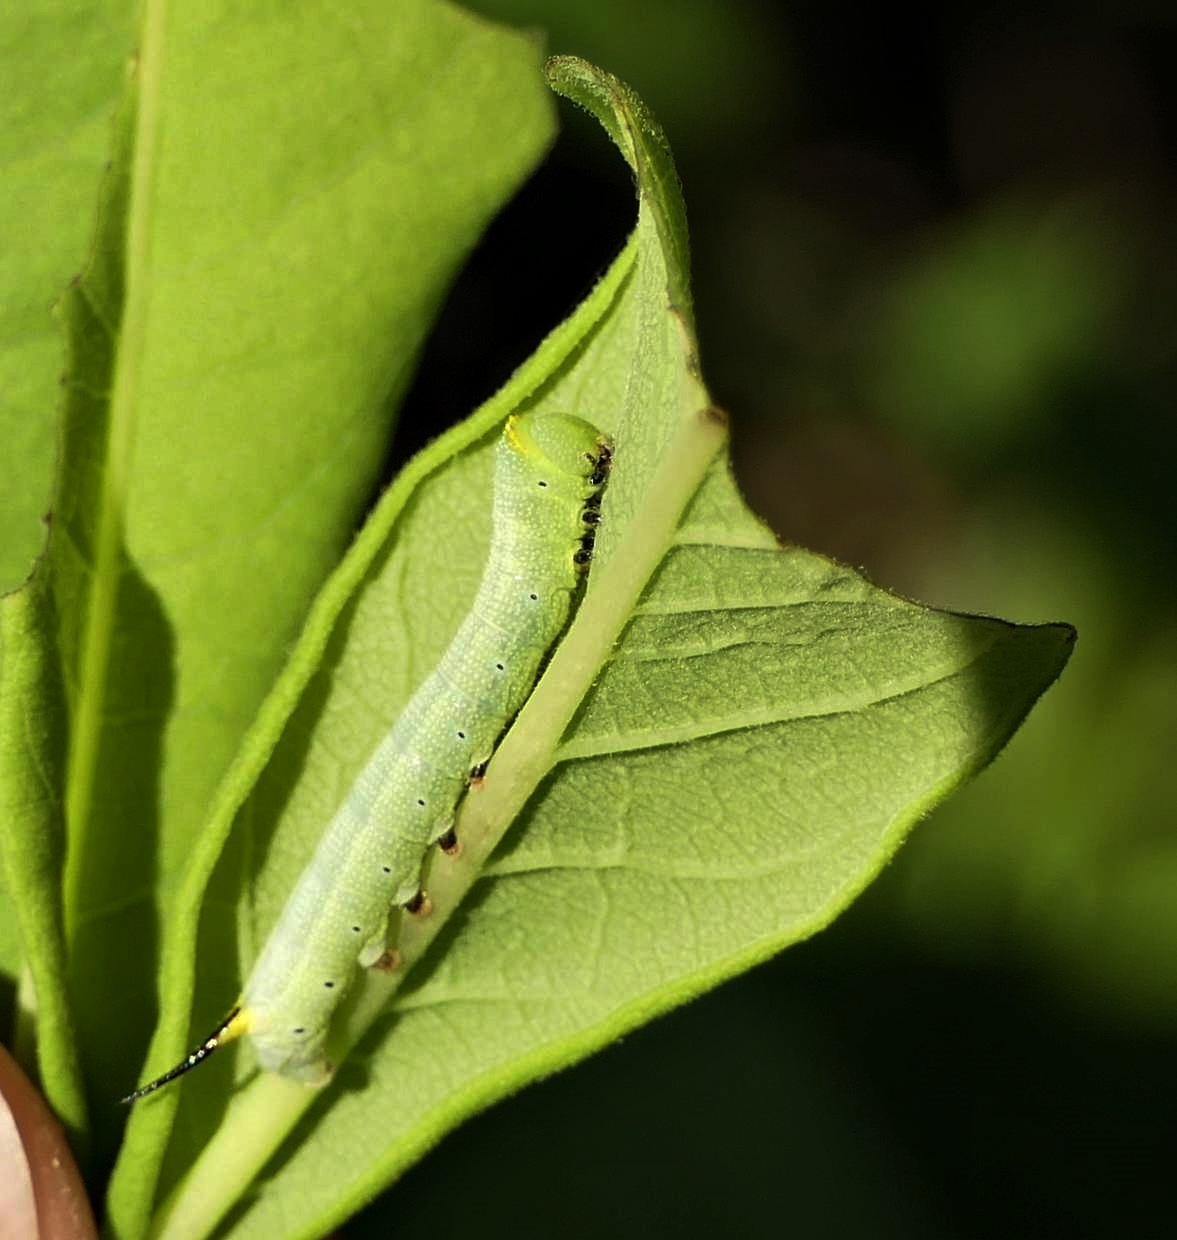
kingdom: Animalia
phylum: Arthropoda
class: Insecta
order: Lepidoptera
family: Sphingidae
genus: Hemaris
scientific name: Hemaris diffinis
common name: Bumblebee moth
